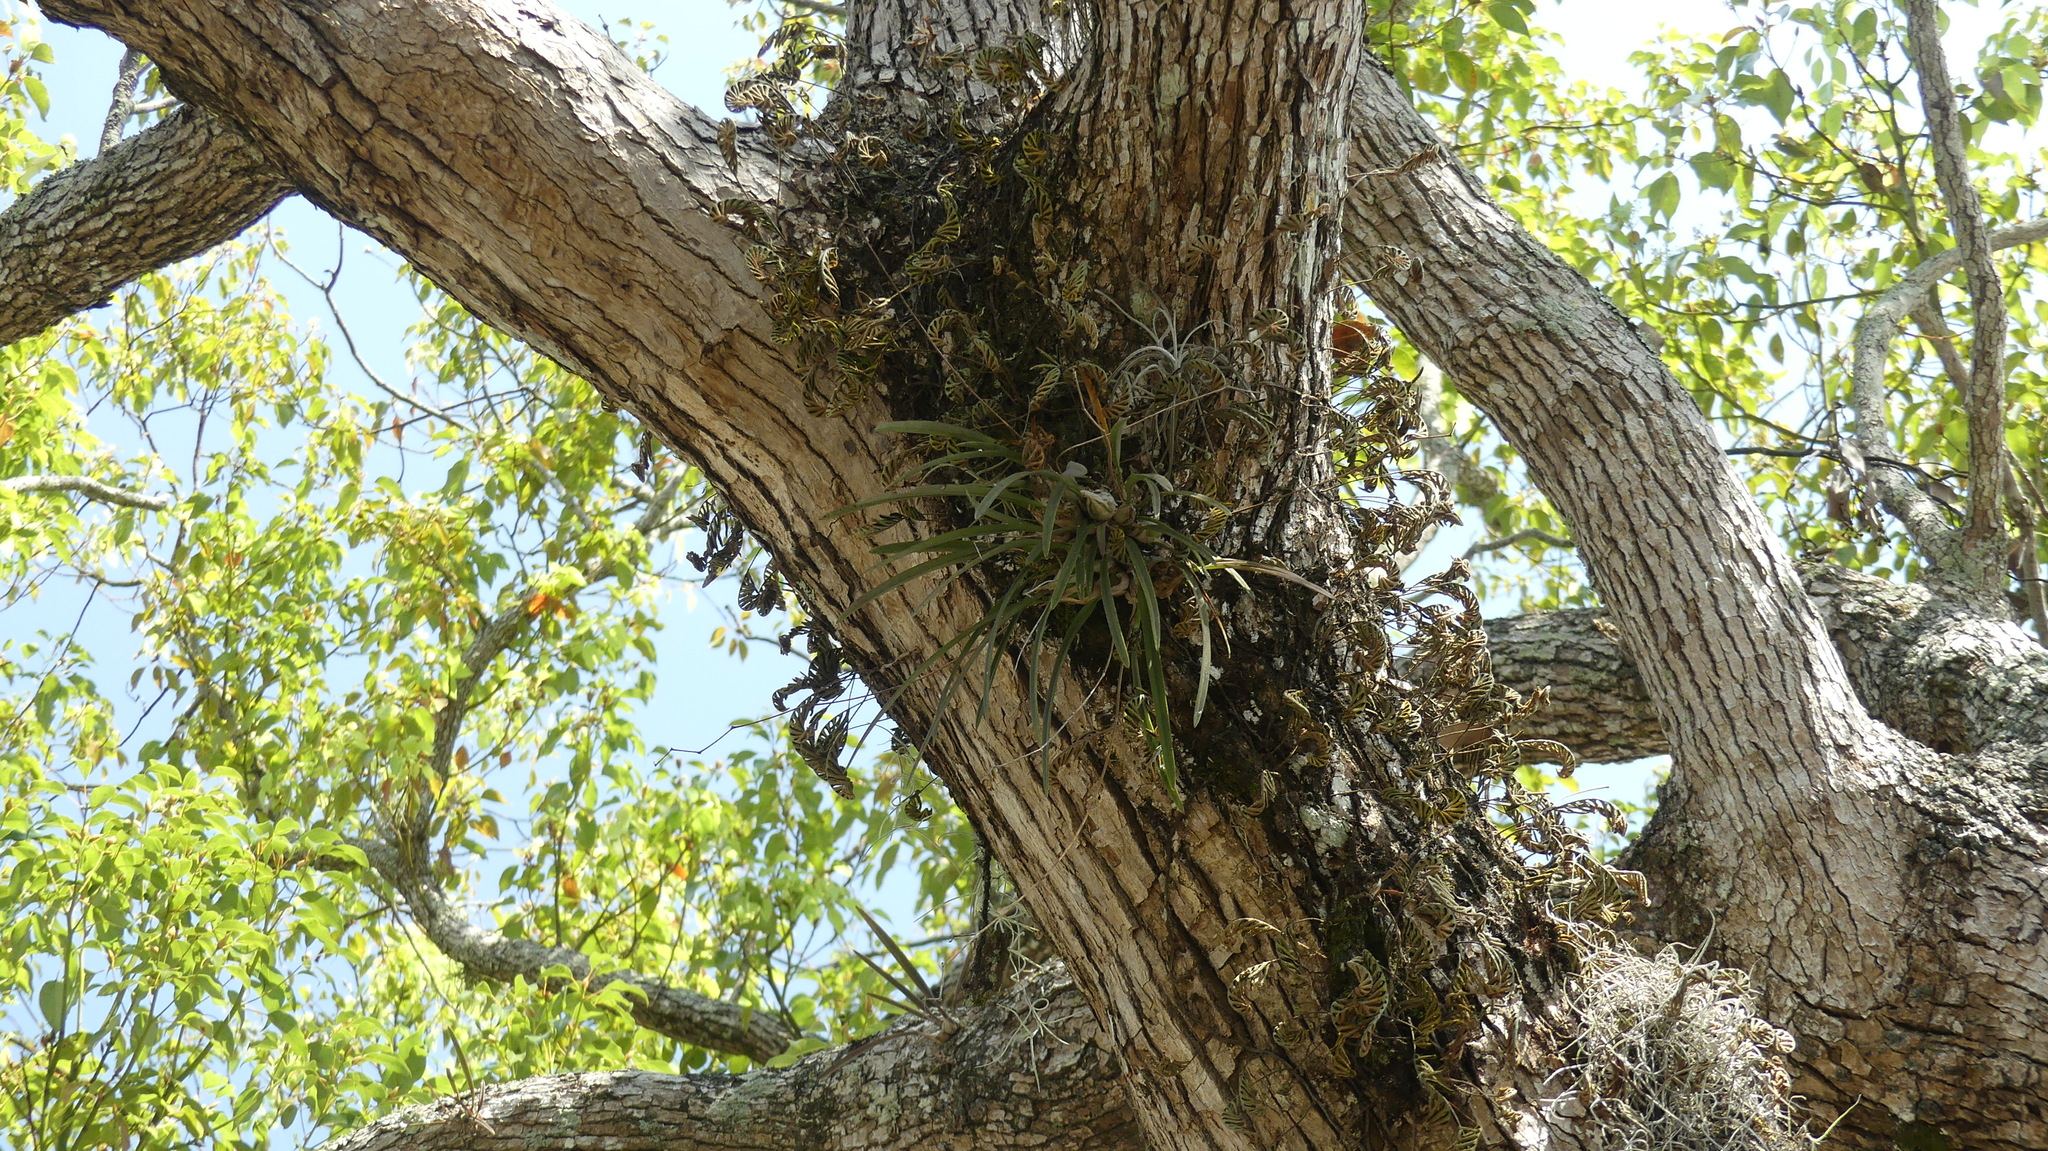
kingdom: Plantae
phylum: Tracheophyta
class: Liliopsida
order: Asparagales
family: Orchidaceae
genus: Encyclia
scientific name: Encyclia tampensis
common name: Florida butterfly orchid
